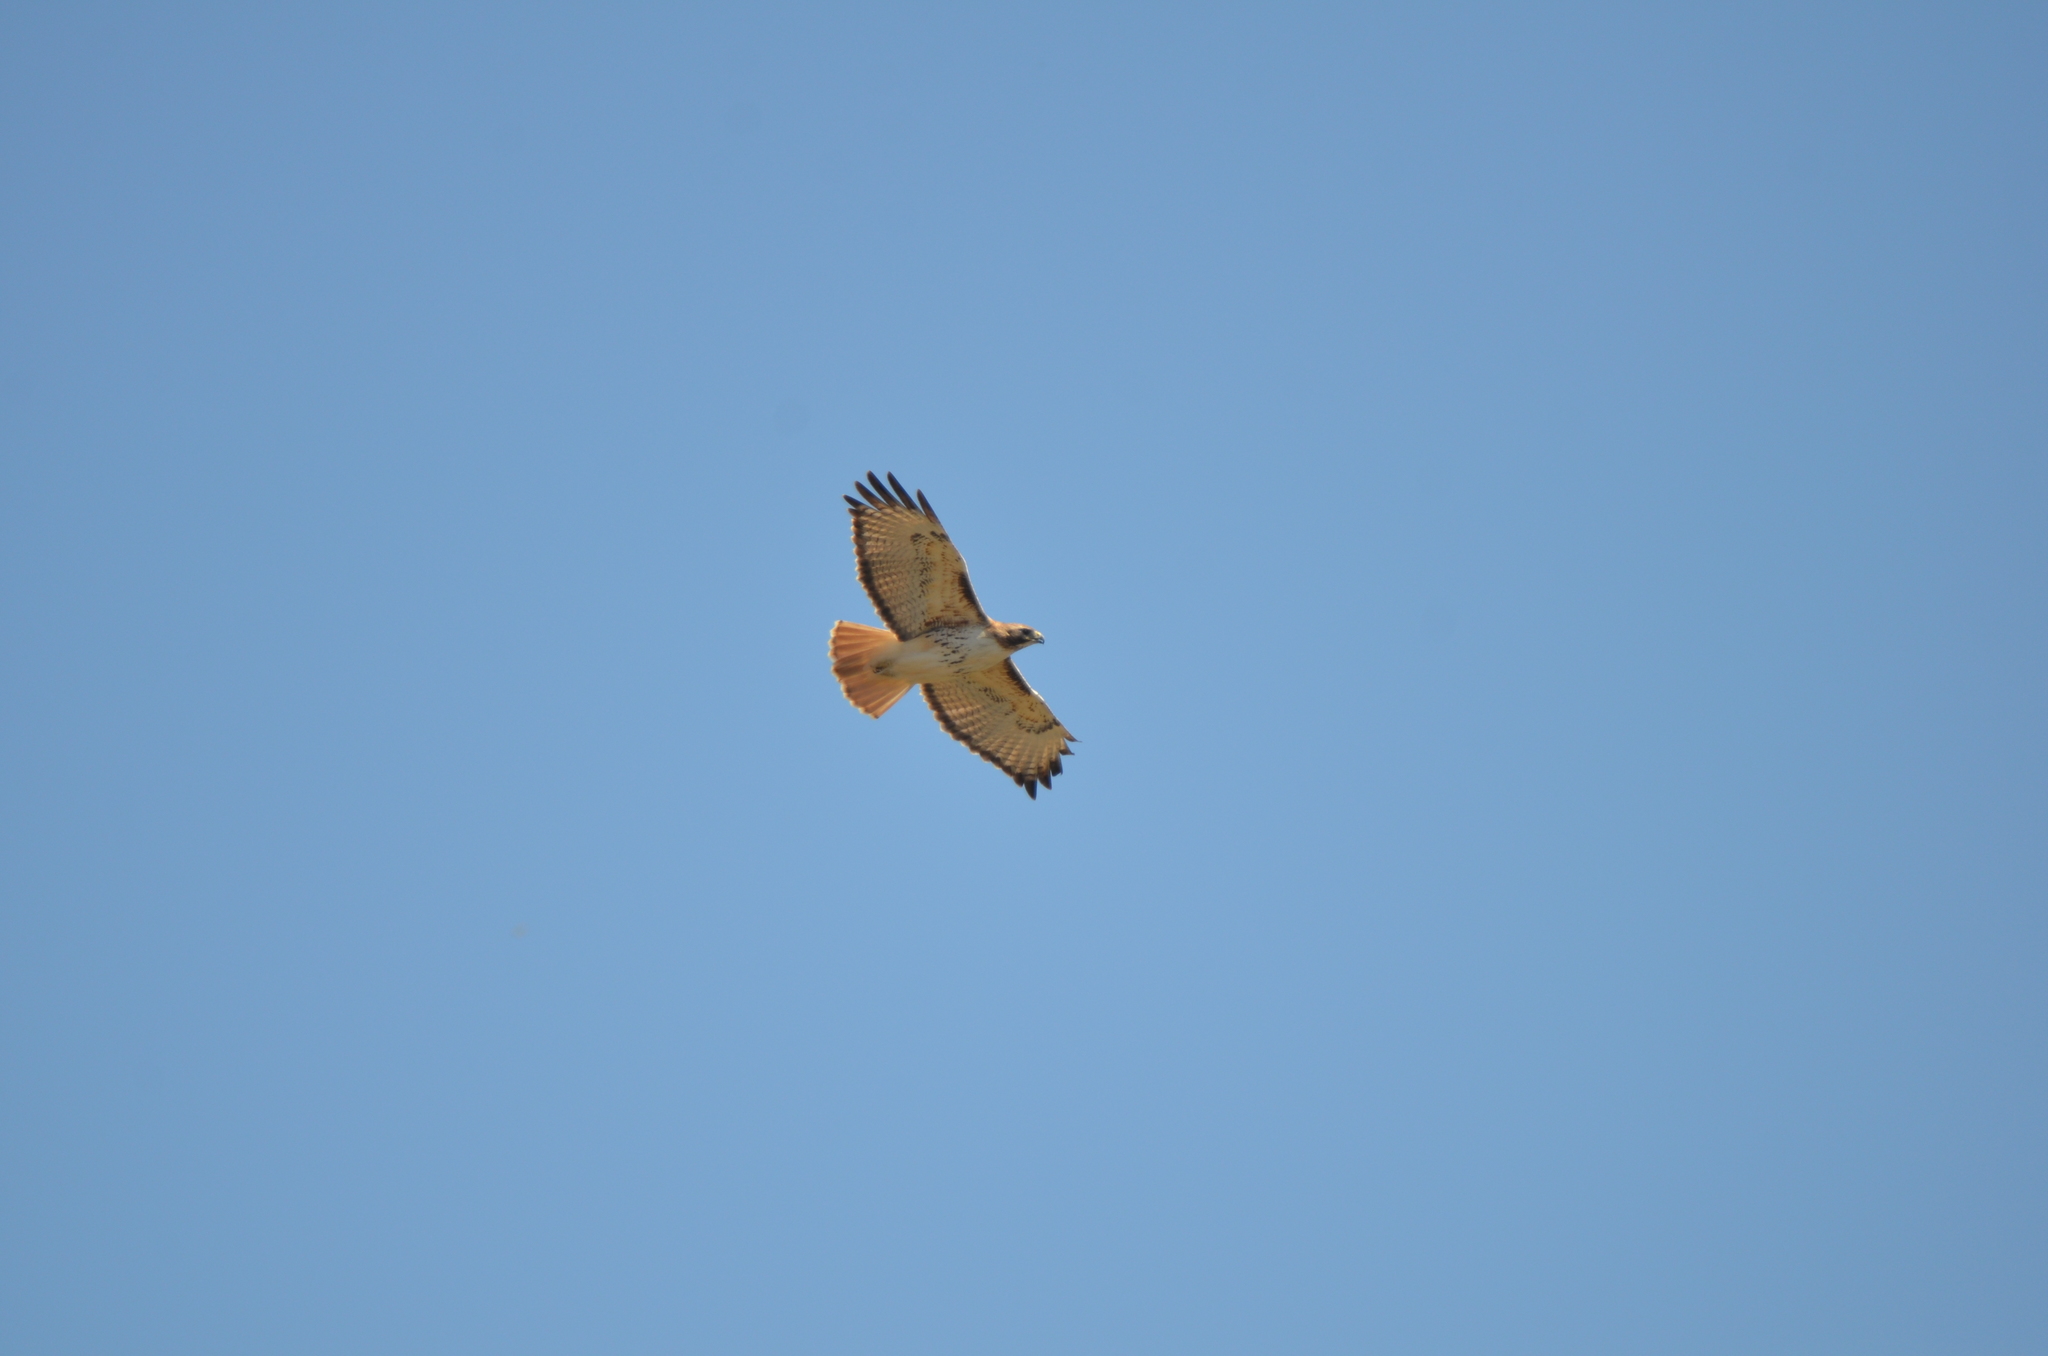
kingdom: Animalia
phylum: Chordata
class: Aves
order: Accipitriformes
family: Accipitridae
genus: Buteo
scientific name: Buteo jamaicensis
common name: Red-tailed hawk
